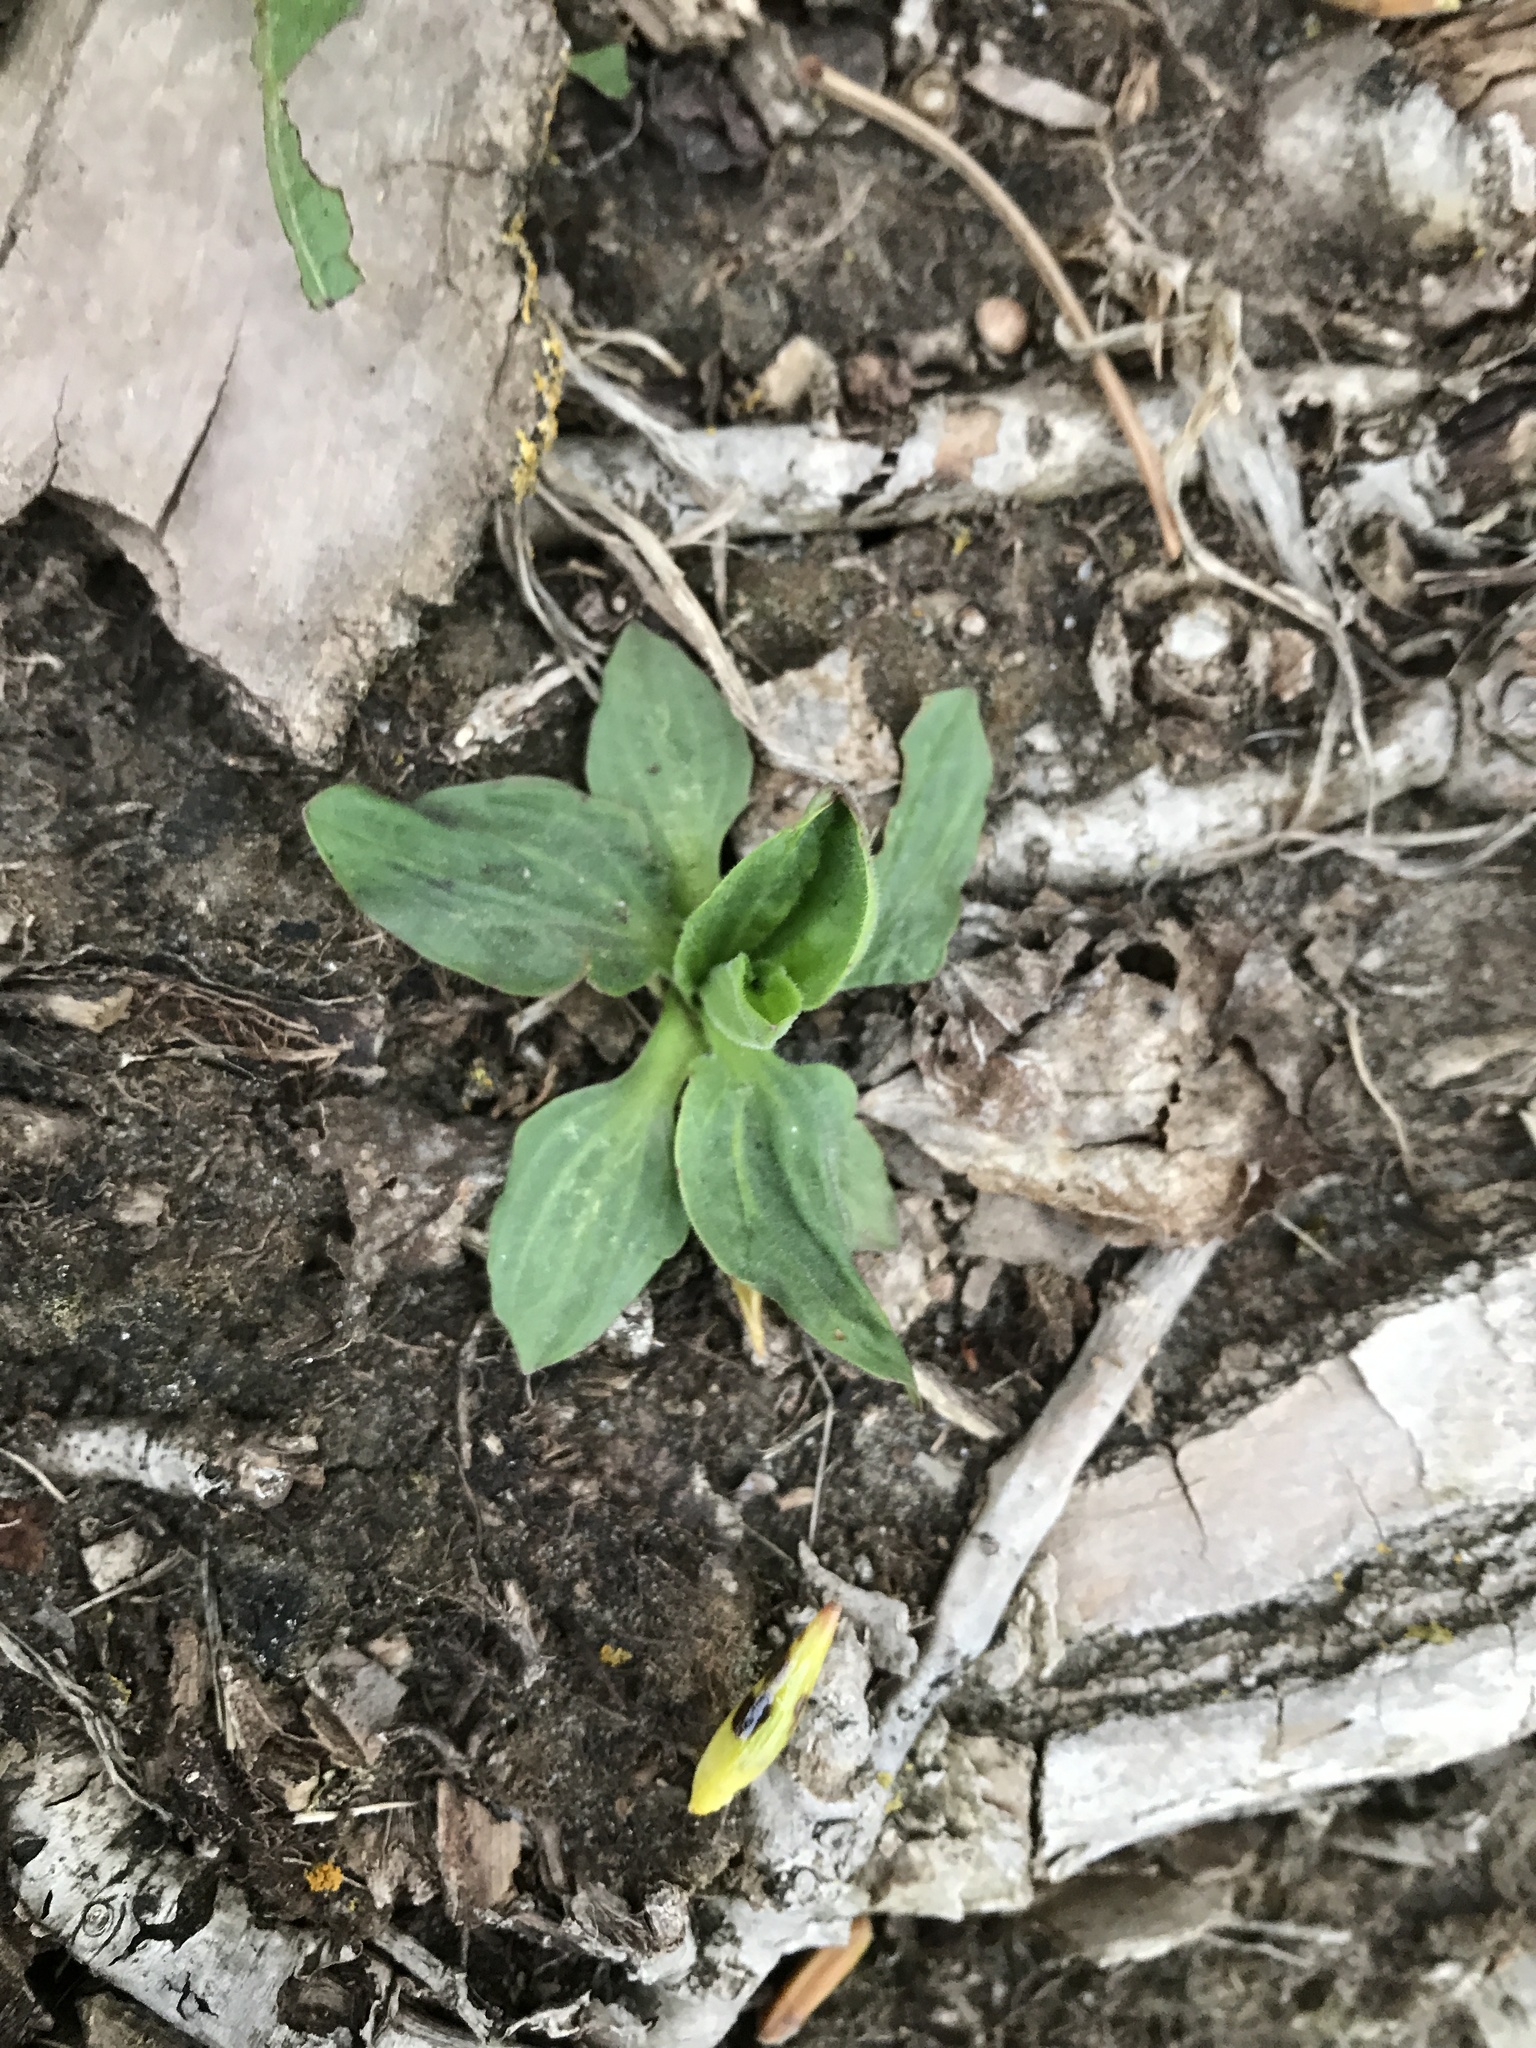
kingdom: Plantae
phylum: Tracheophyta
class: Magnoliopsida
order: Lamiales
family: Plantaginaceae
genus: Plantago
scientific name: Plantago major
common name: Common plantain
